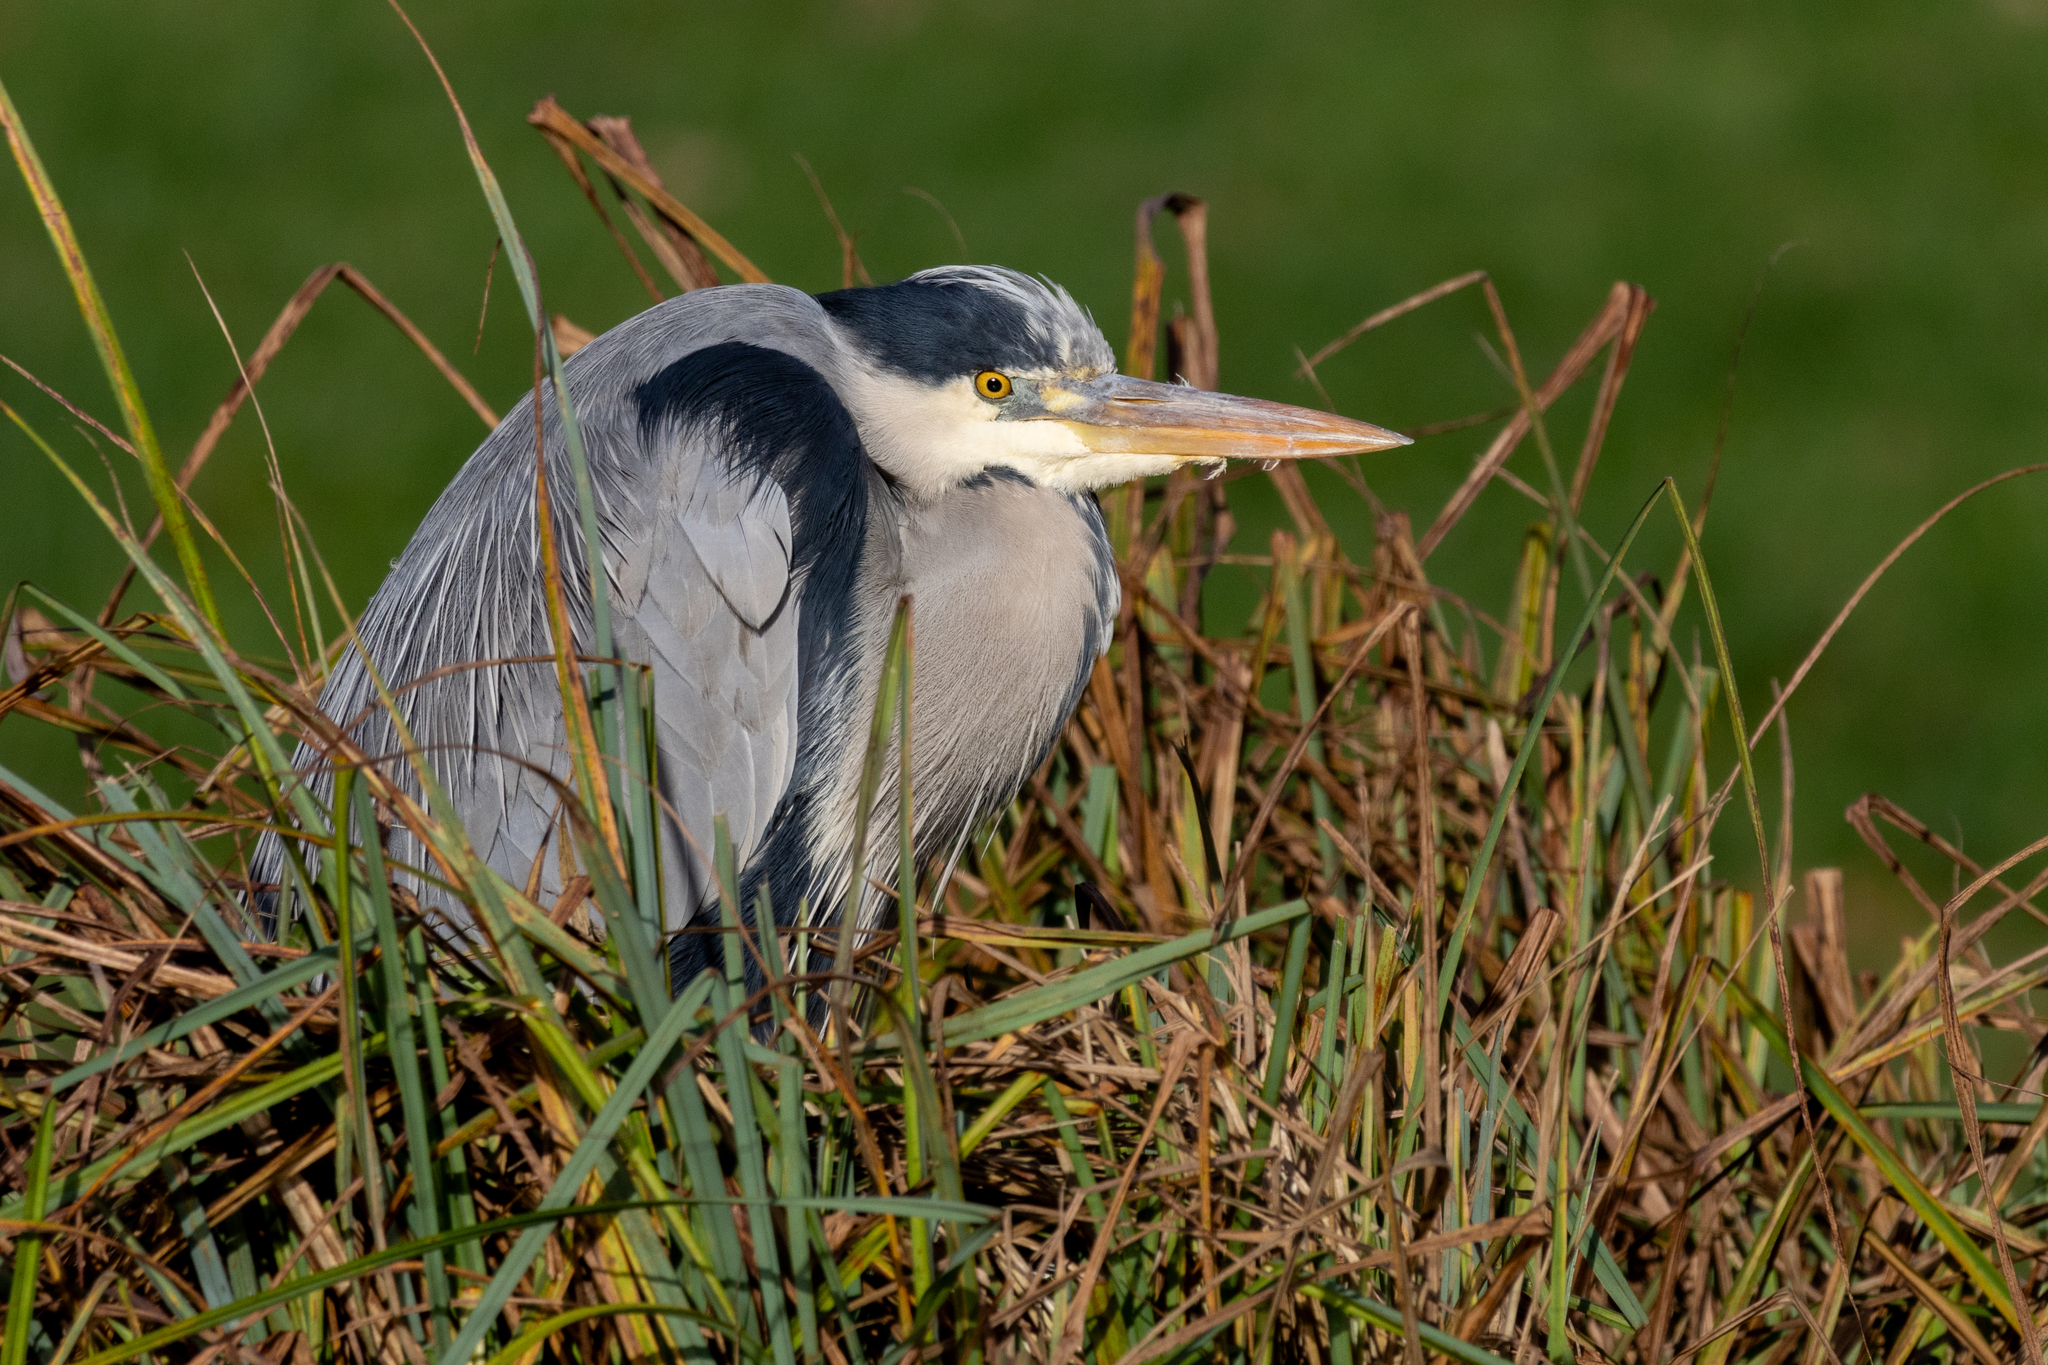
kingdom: Animalia
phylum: Chordata
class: Aves
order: Pelecaniformes
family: Ardeidae
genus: Ardea
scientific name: Ardea cinerea
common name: Grey heron
